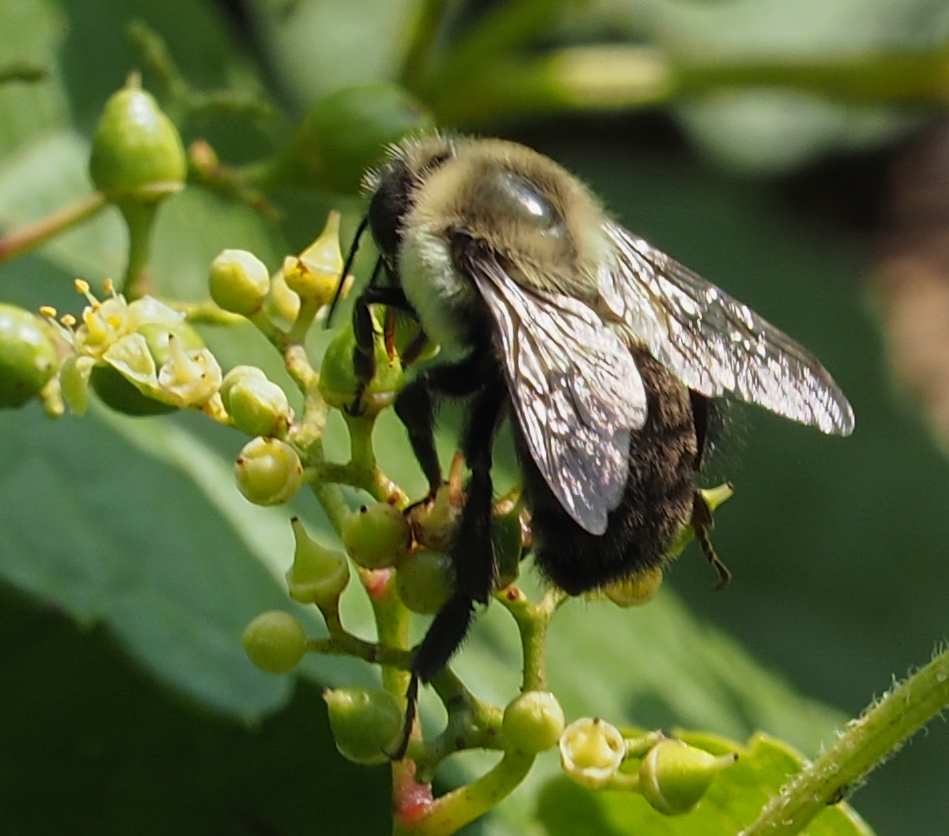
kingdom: Animalia
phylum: Arthropoda
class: Insecta
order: Hymenoptera
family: Apidae
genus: Bombus
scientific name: Bombus impatiens
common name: Common eastern bumble bee
